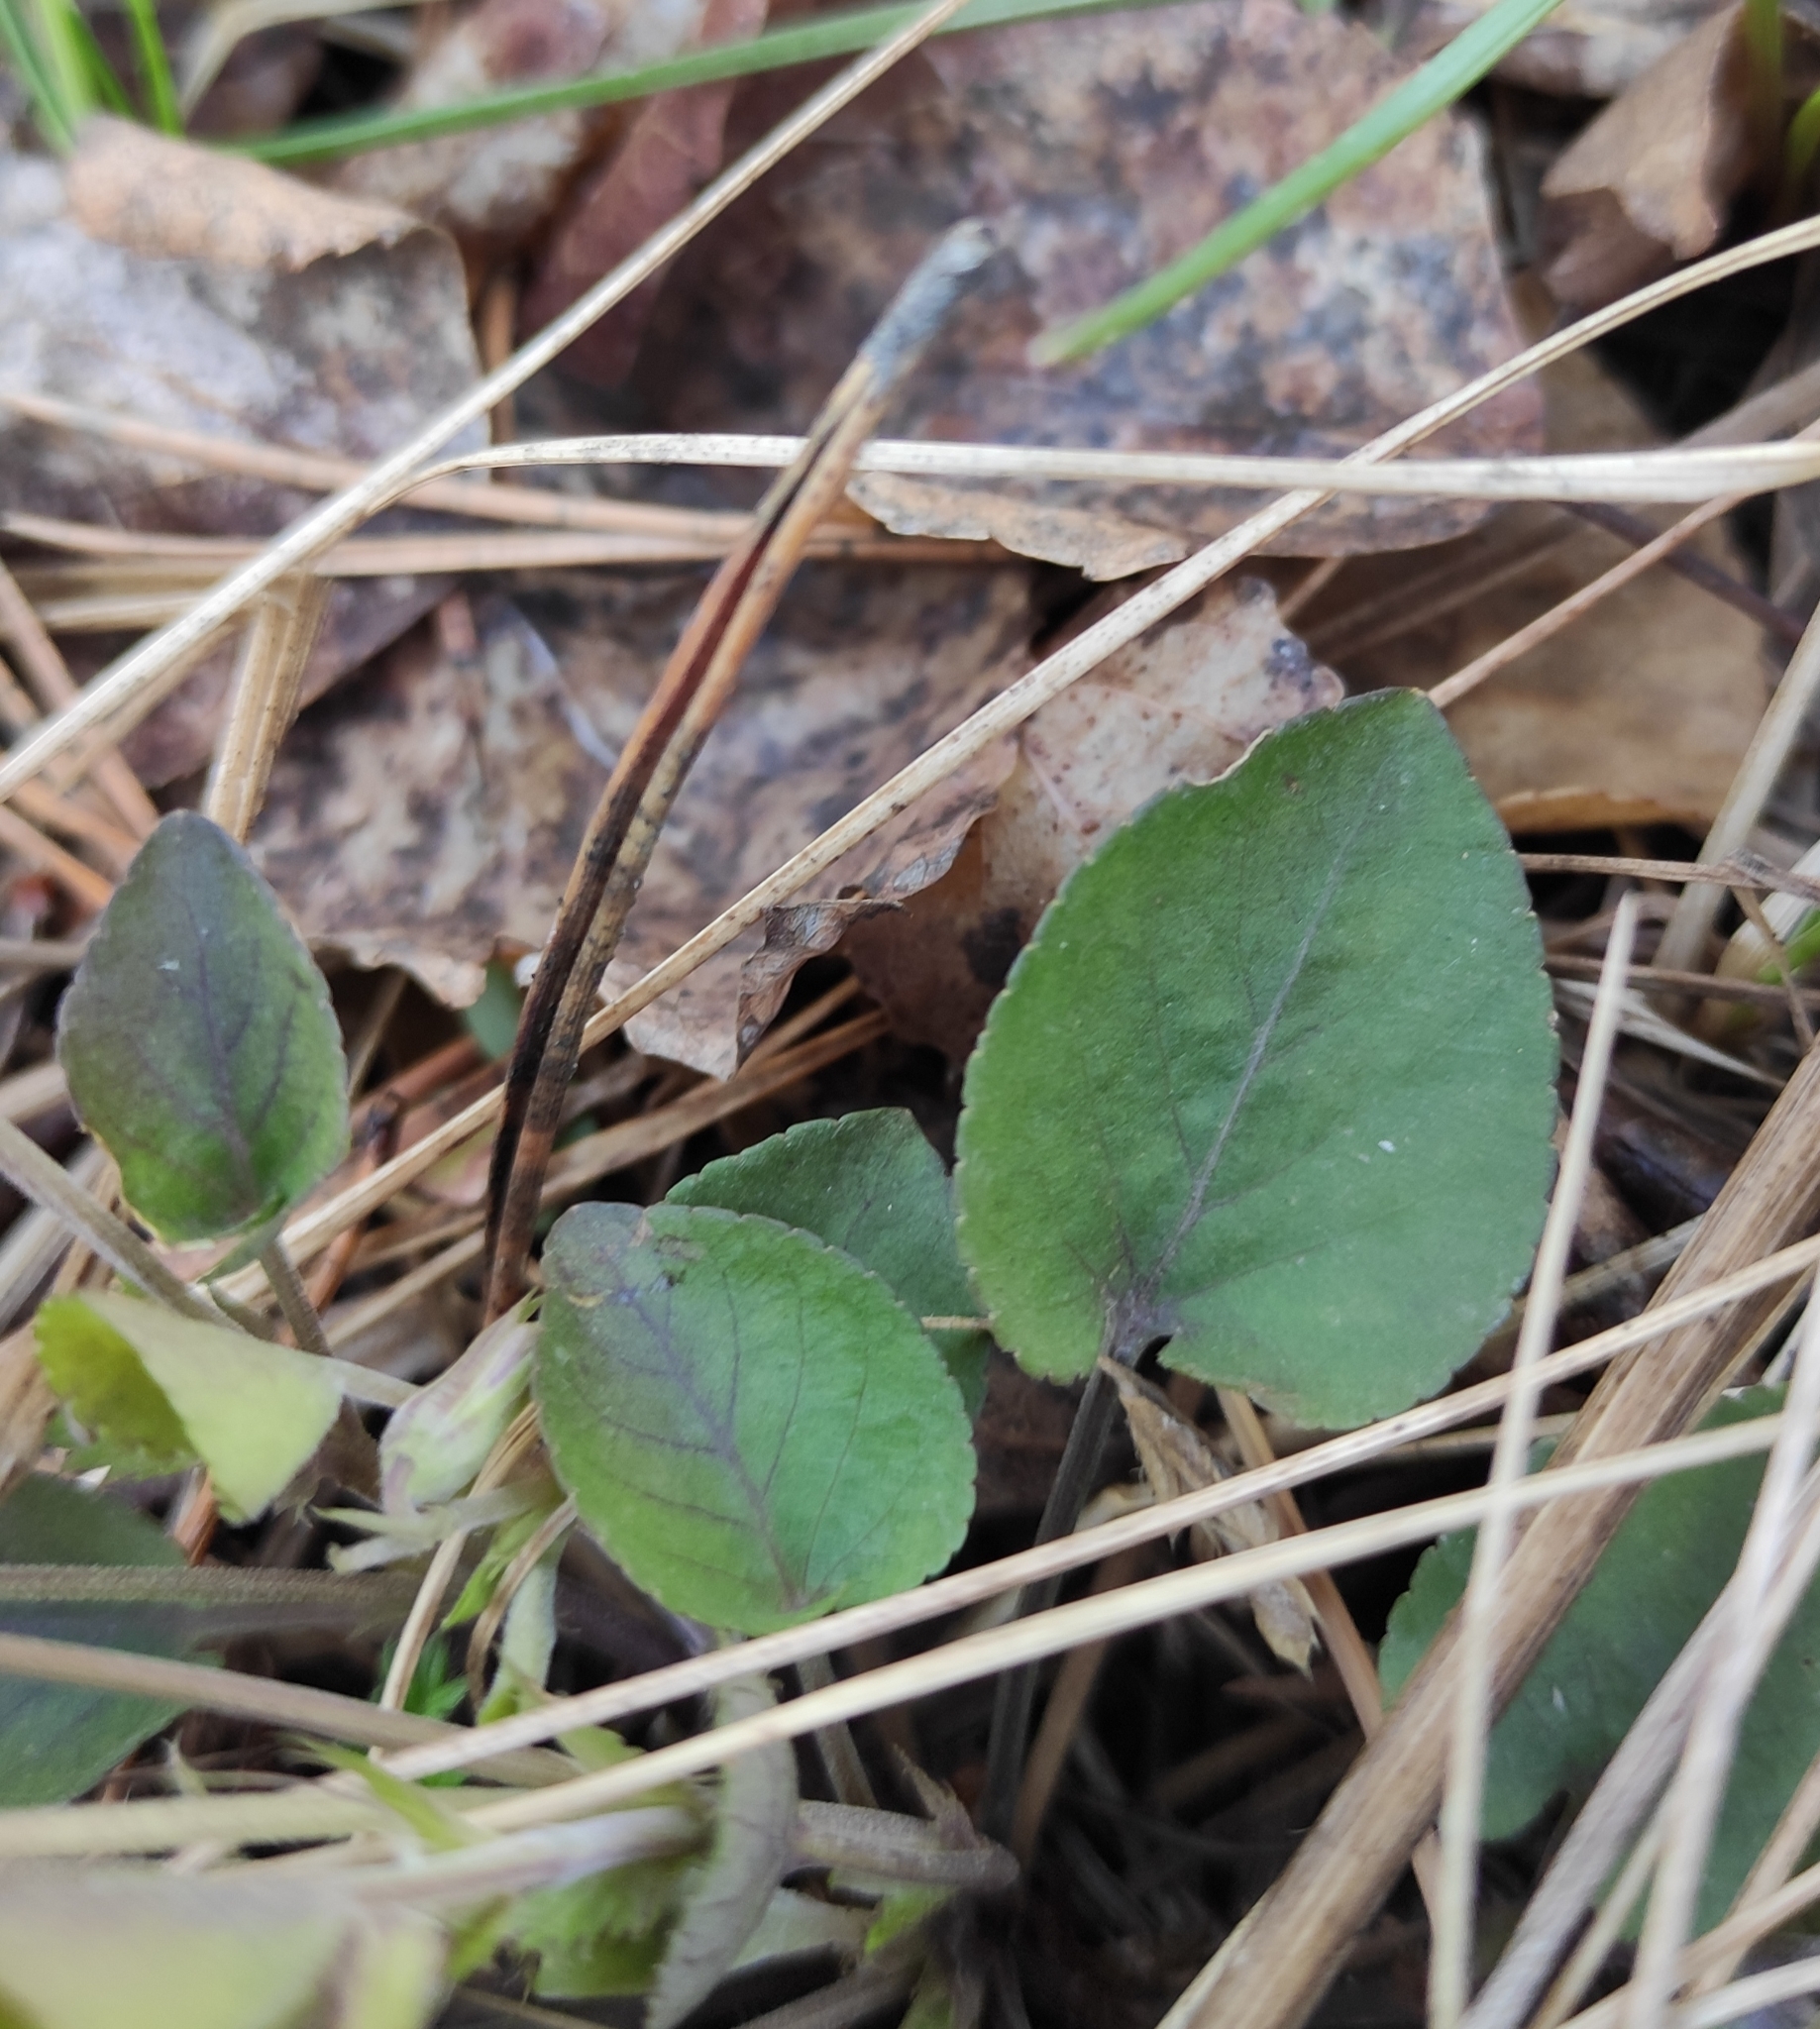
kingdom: Plantae
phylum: Tracheophyta
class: Magnoliopsida
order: Malpighiales
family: Violaceae
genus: Viola
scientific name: Viola rupestris
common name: Teesdale violet
